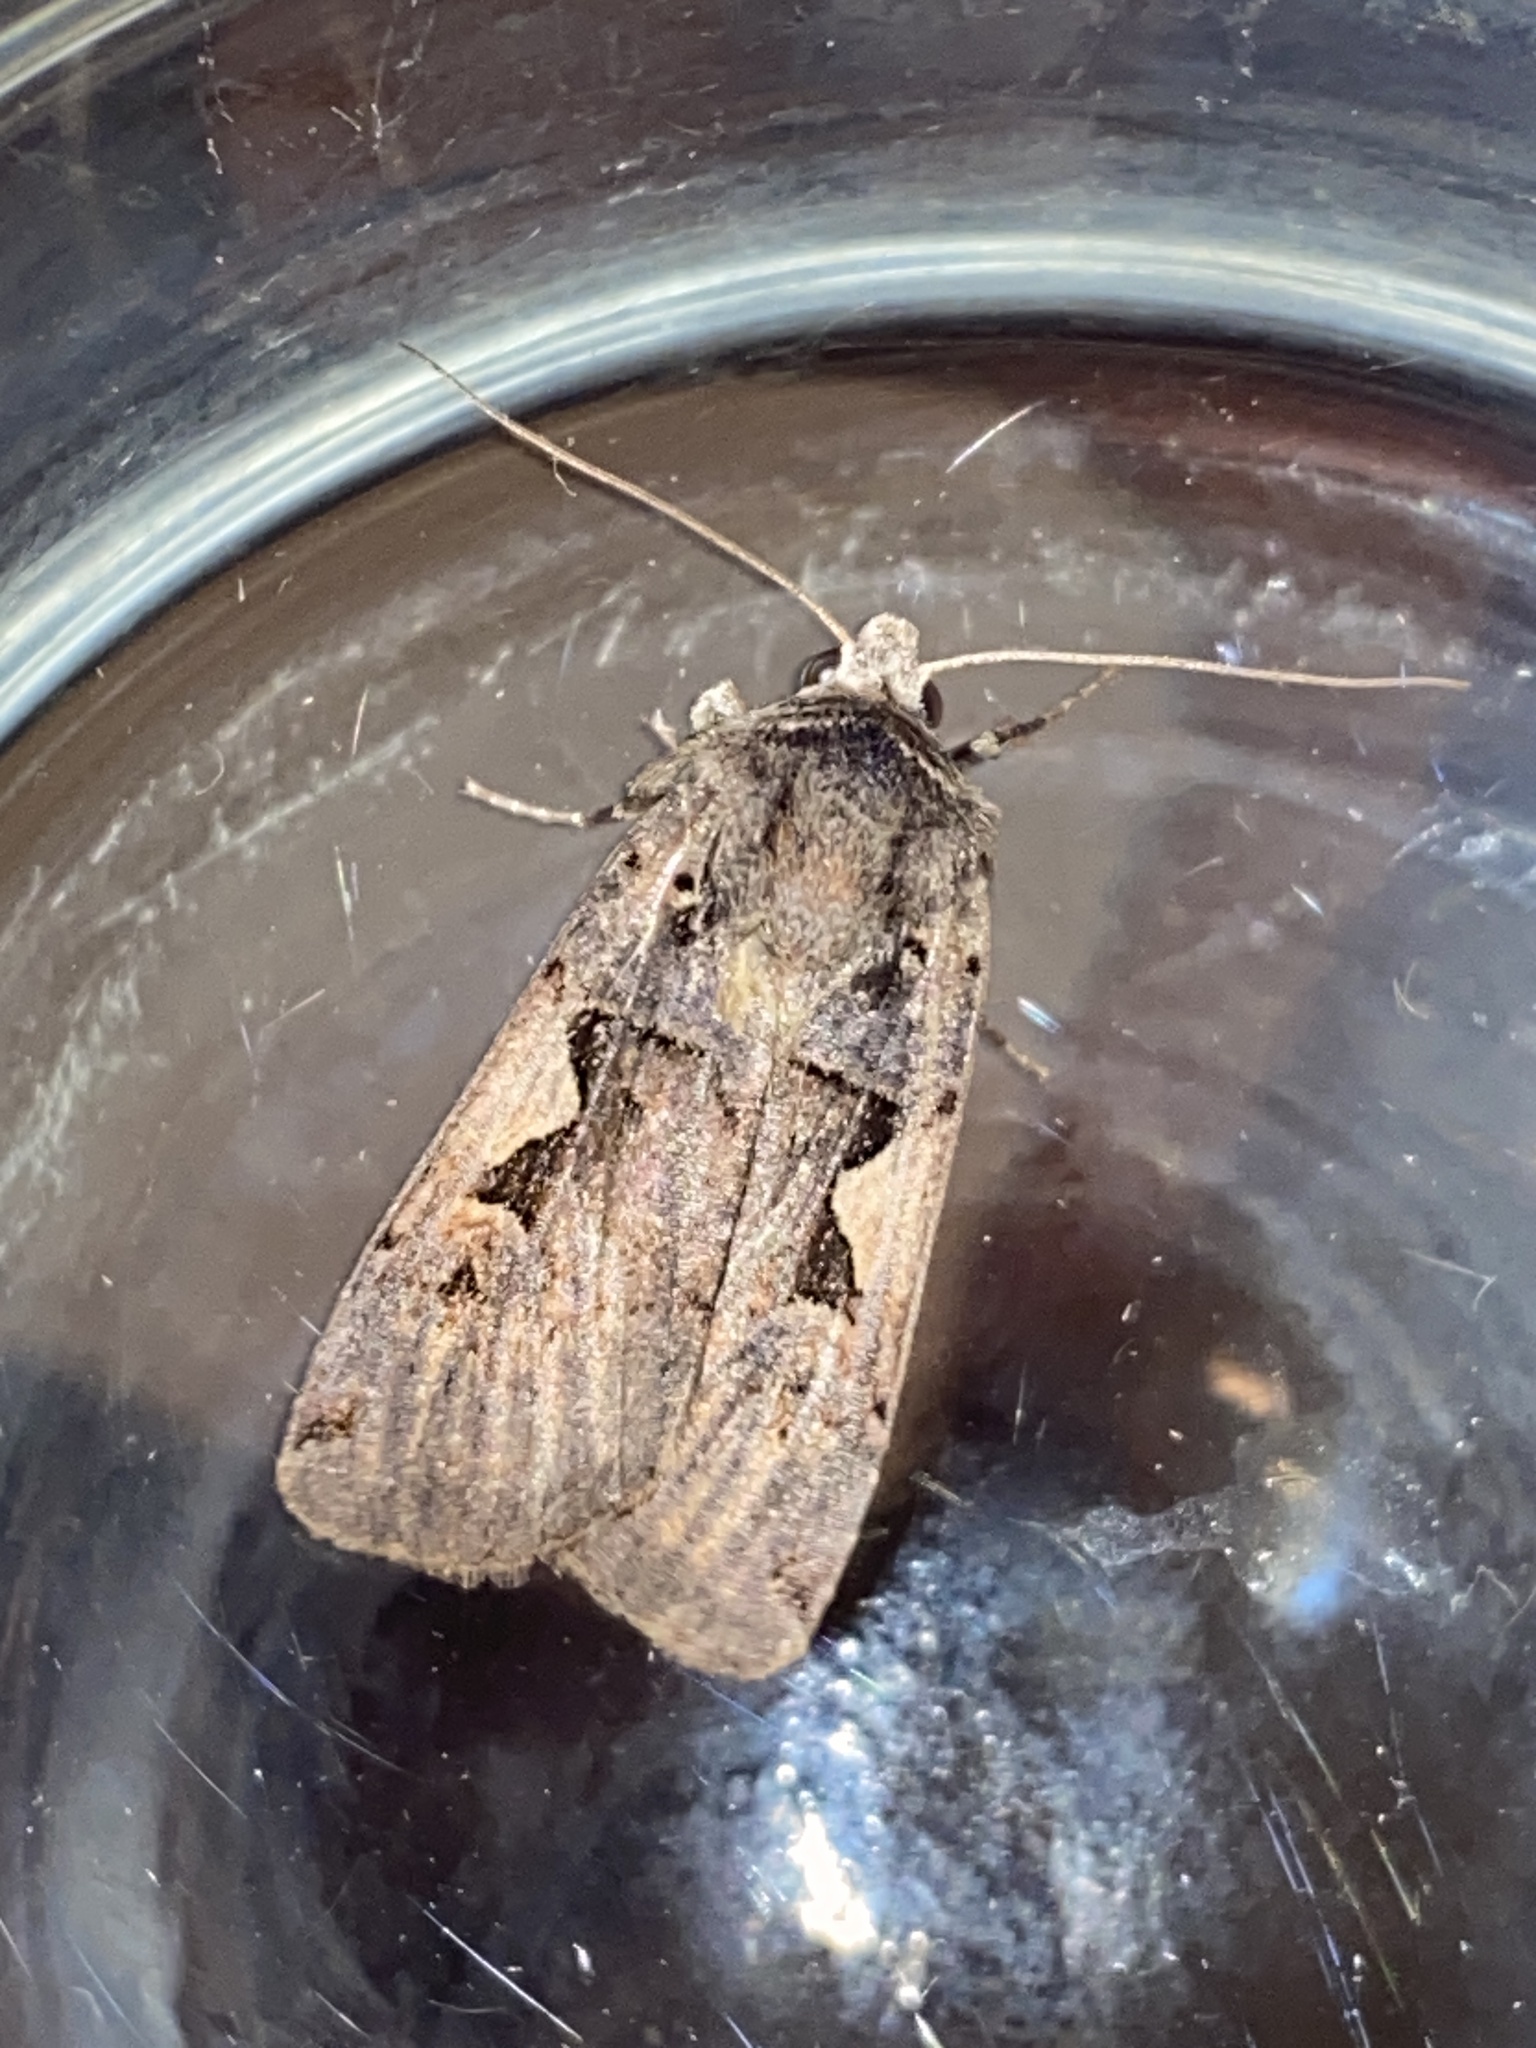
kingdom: Animalia
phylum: Arthropoda
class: Insecta
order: Lepidoptera
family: Noctuidae
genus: Xestia
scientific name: Xestia c-nigrum
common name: Setaceous hebrew character
